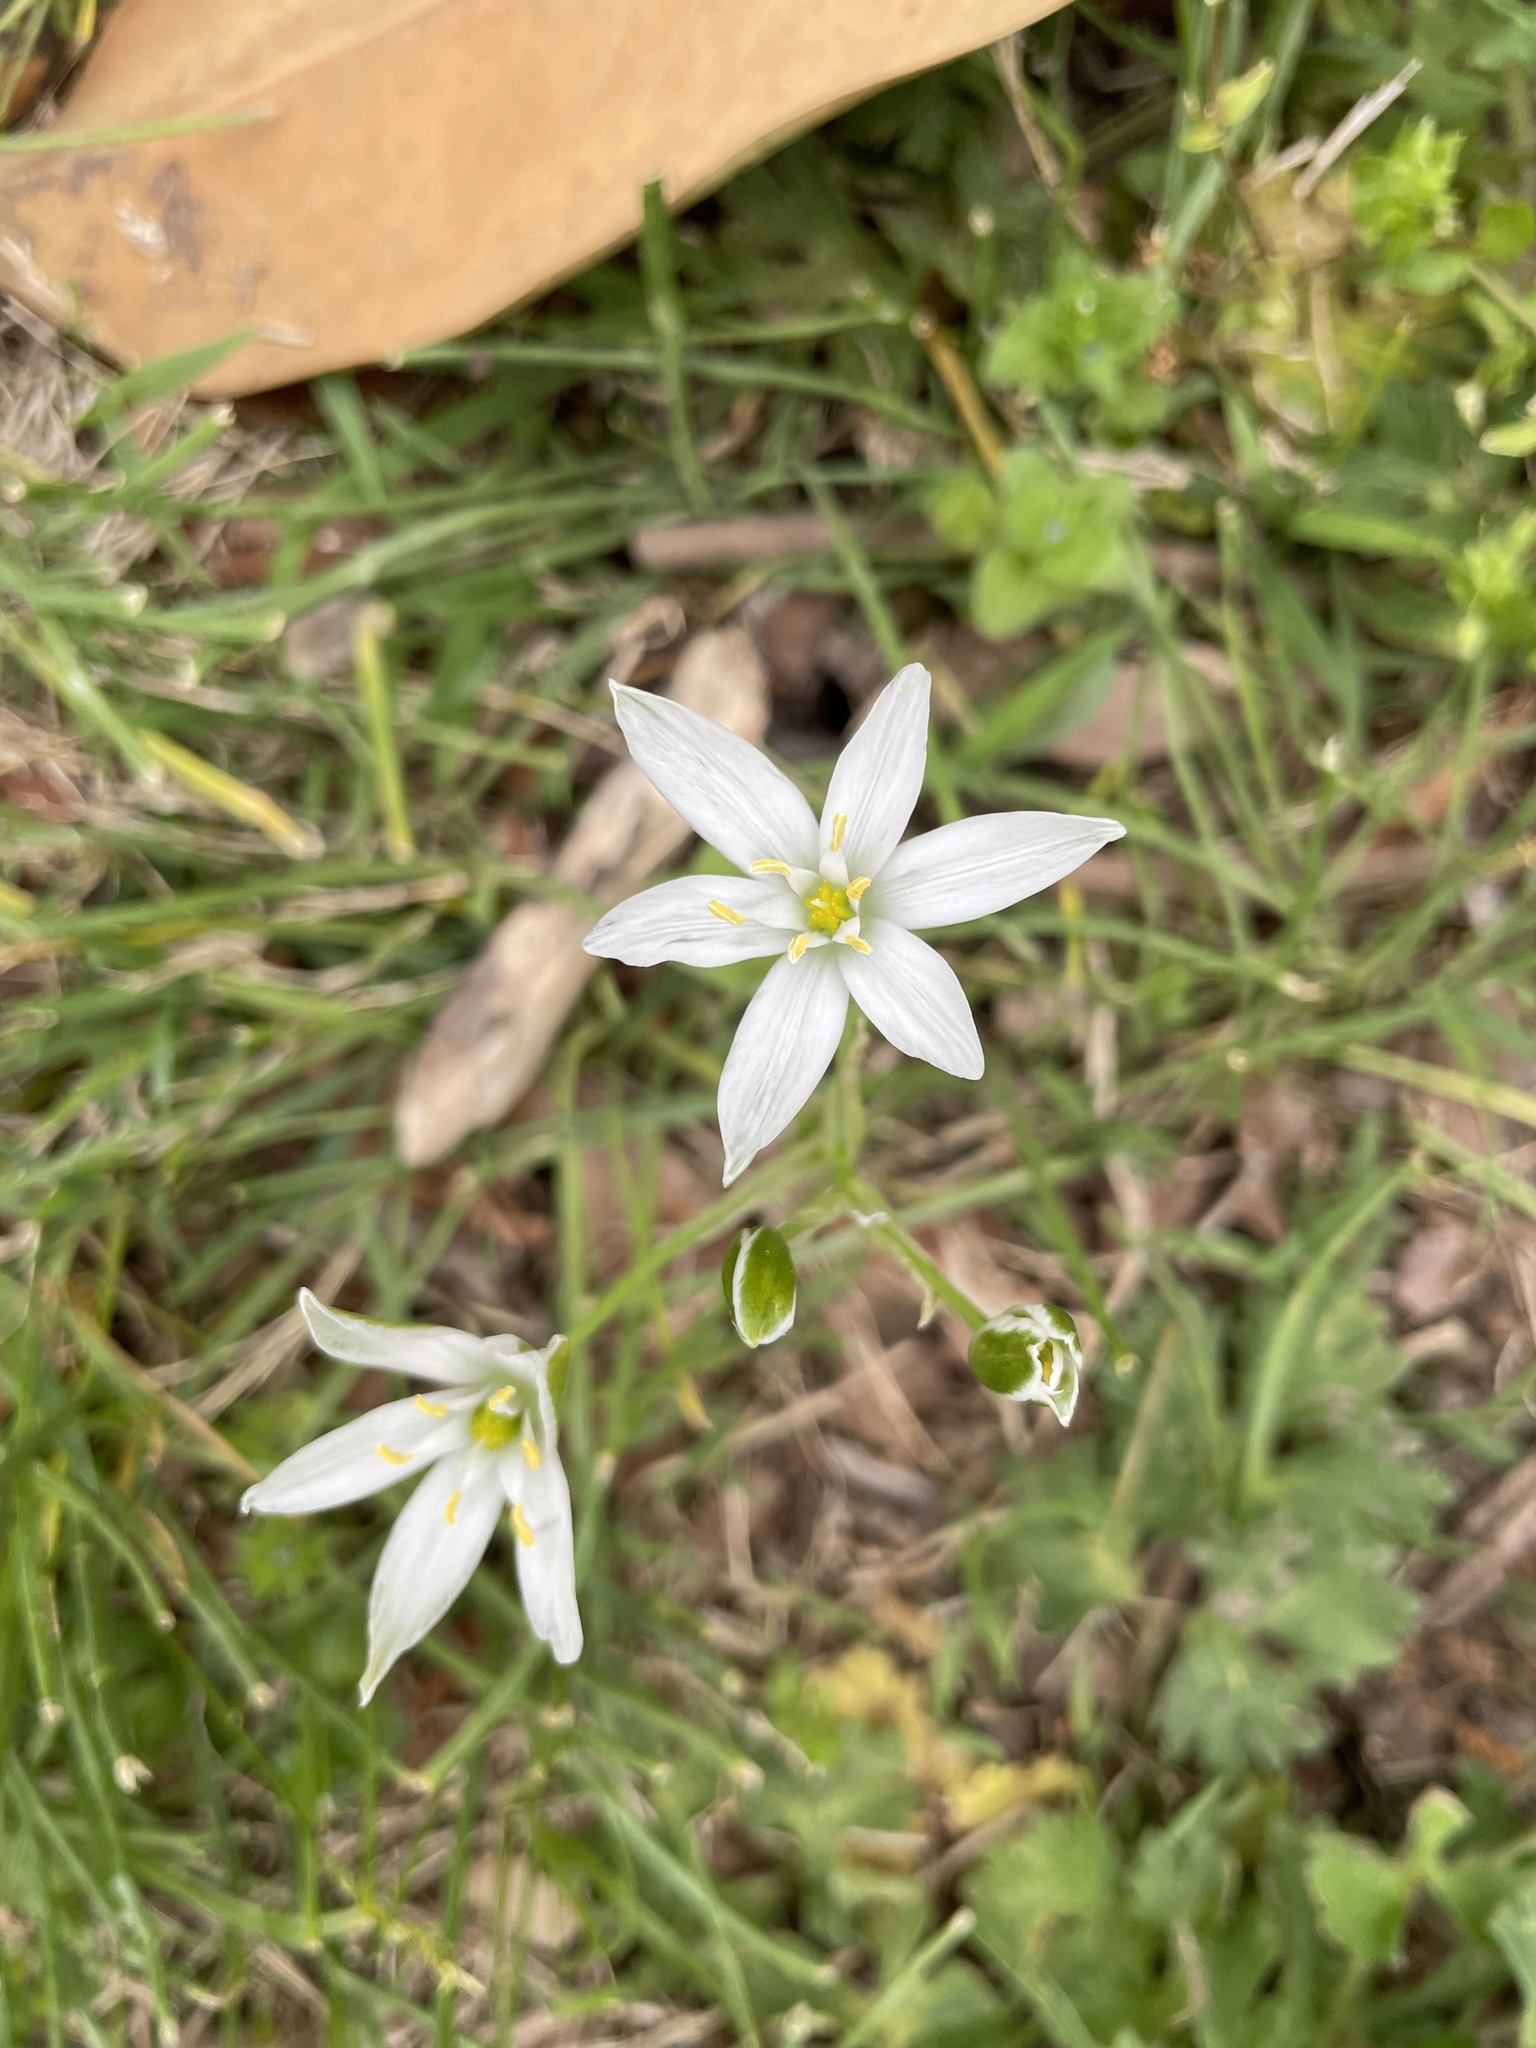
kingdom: Plantae
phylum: Tracheophyta
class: Liliopsida
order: Asparagales
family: Asparagaceae
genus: Ornithogalum
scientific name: Ornithogalum umbellatum
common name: Garden star-of-bethlehem
